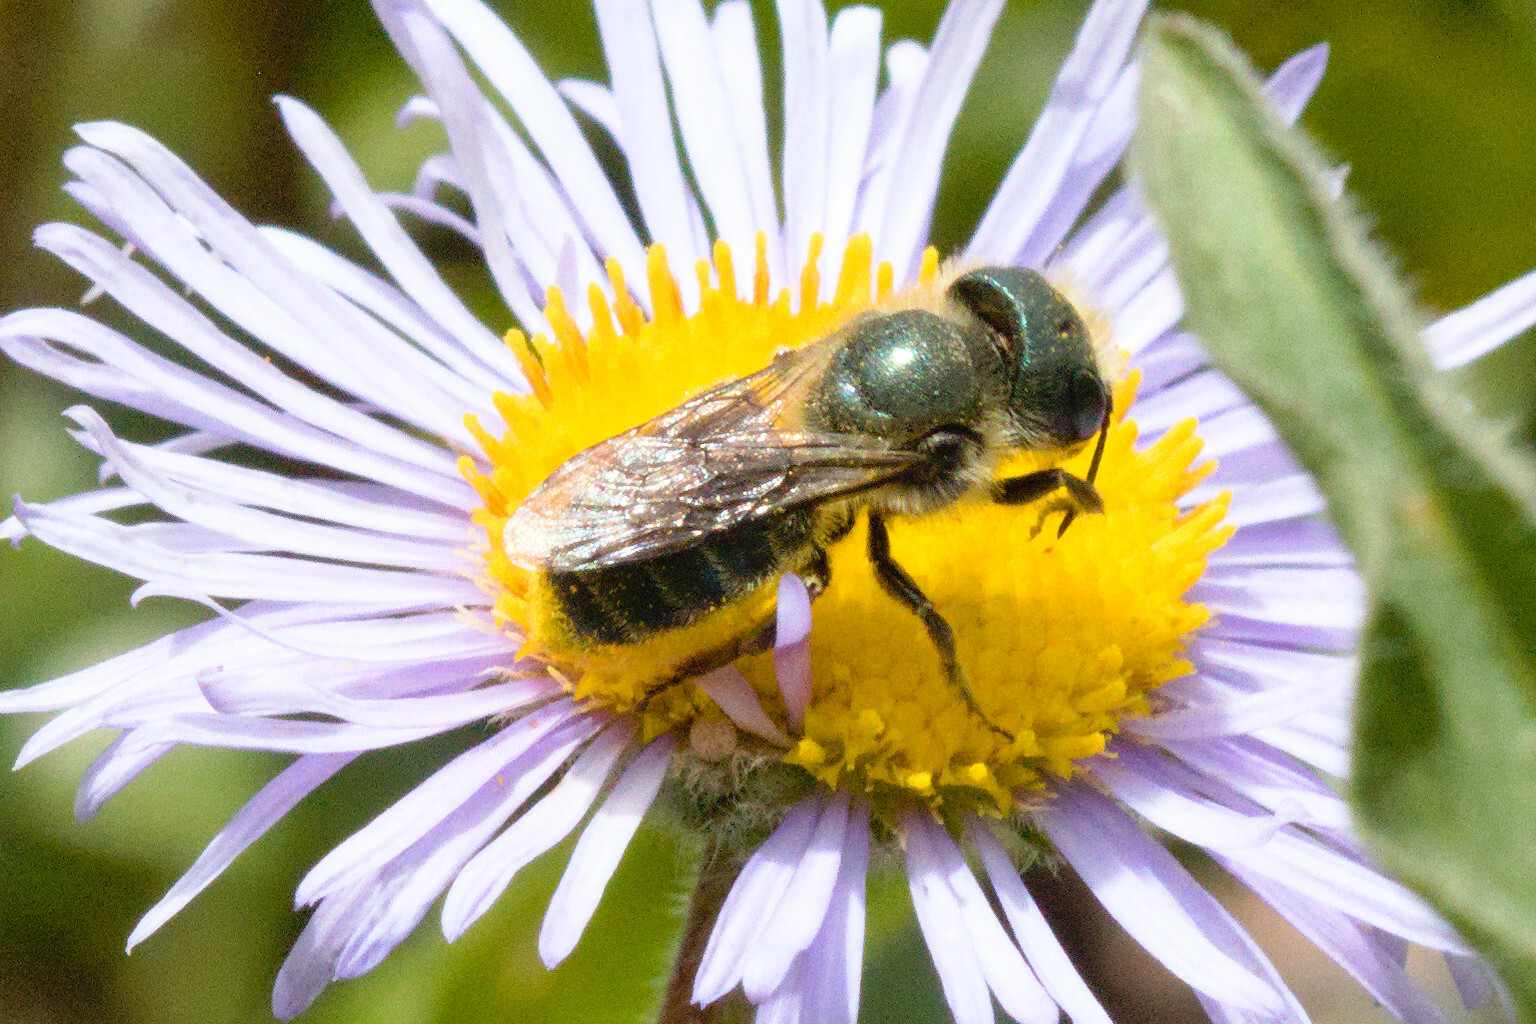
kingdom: Animalia
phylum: Arthropoda
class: Insecta
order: Hymenoptera
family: Megachilidae
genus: Osmia
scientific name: Osmia coloradensis
